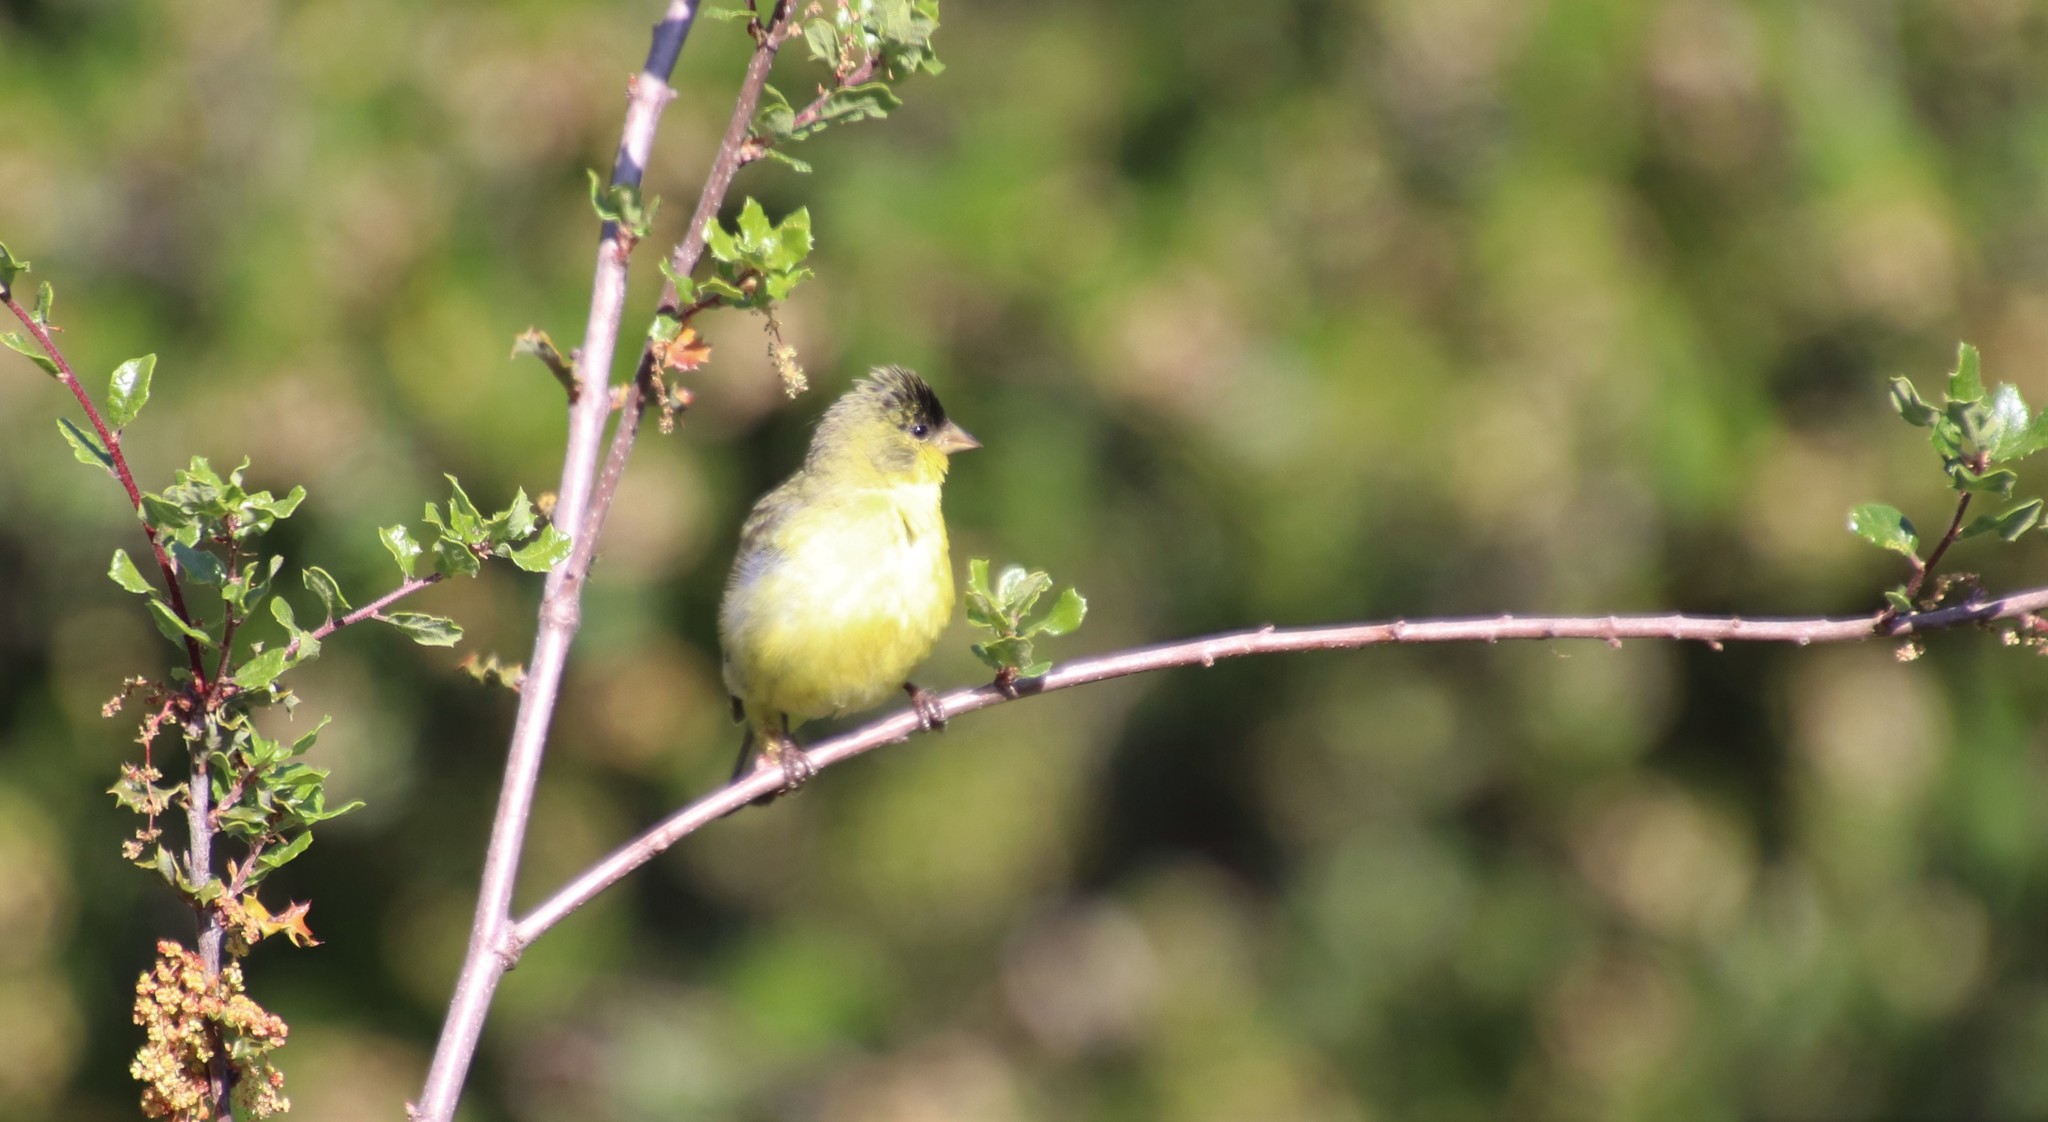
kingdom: Animalia
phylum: Chordata
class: Aves
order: Passeriformes
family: Fringillidae
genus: Spinus
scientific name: Spinus psaltria
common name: Lesser goldfinch
